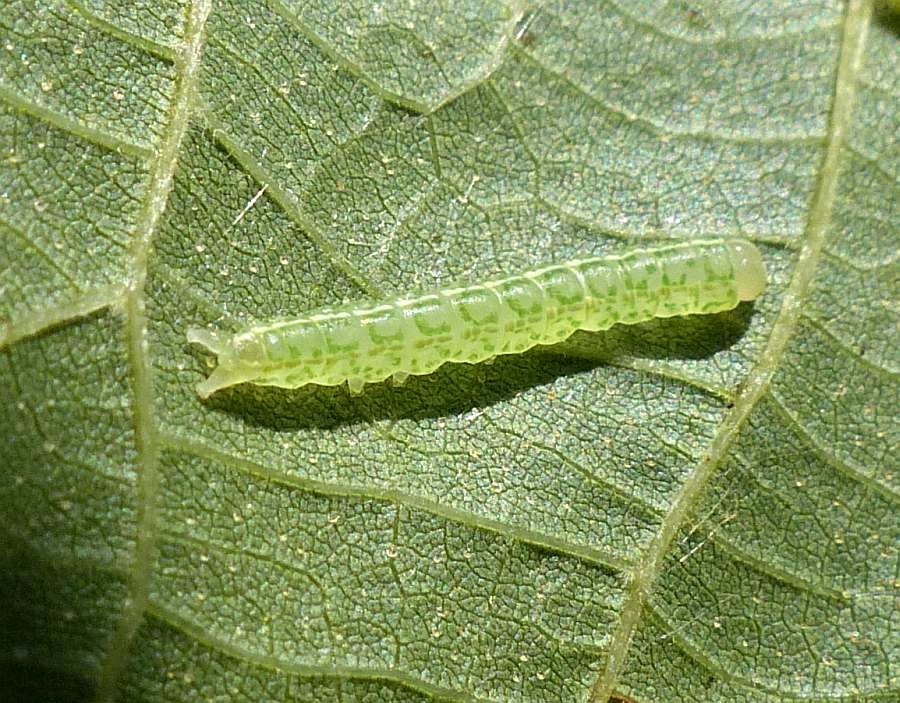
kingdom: Animalia
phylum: Arthropoda
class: Insecta
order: Lepidoptera
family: Nolidae
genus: Baileya
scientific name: Baileya dormitans
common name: Sleeping baileya moth
